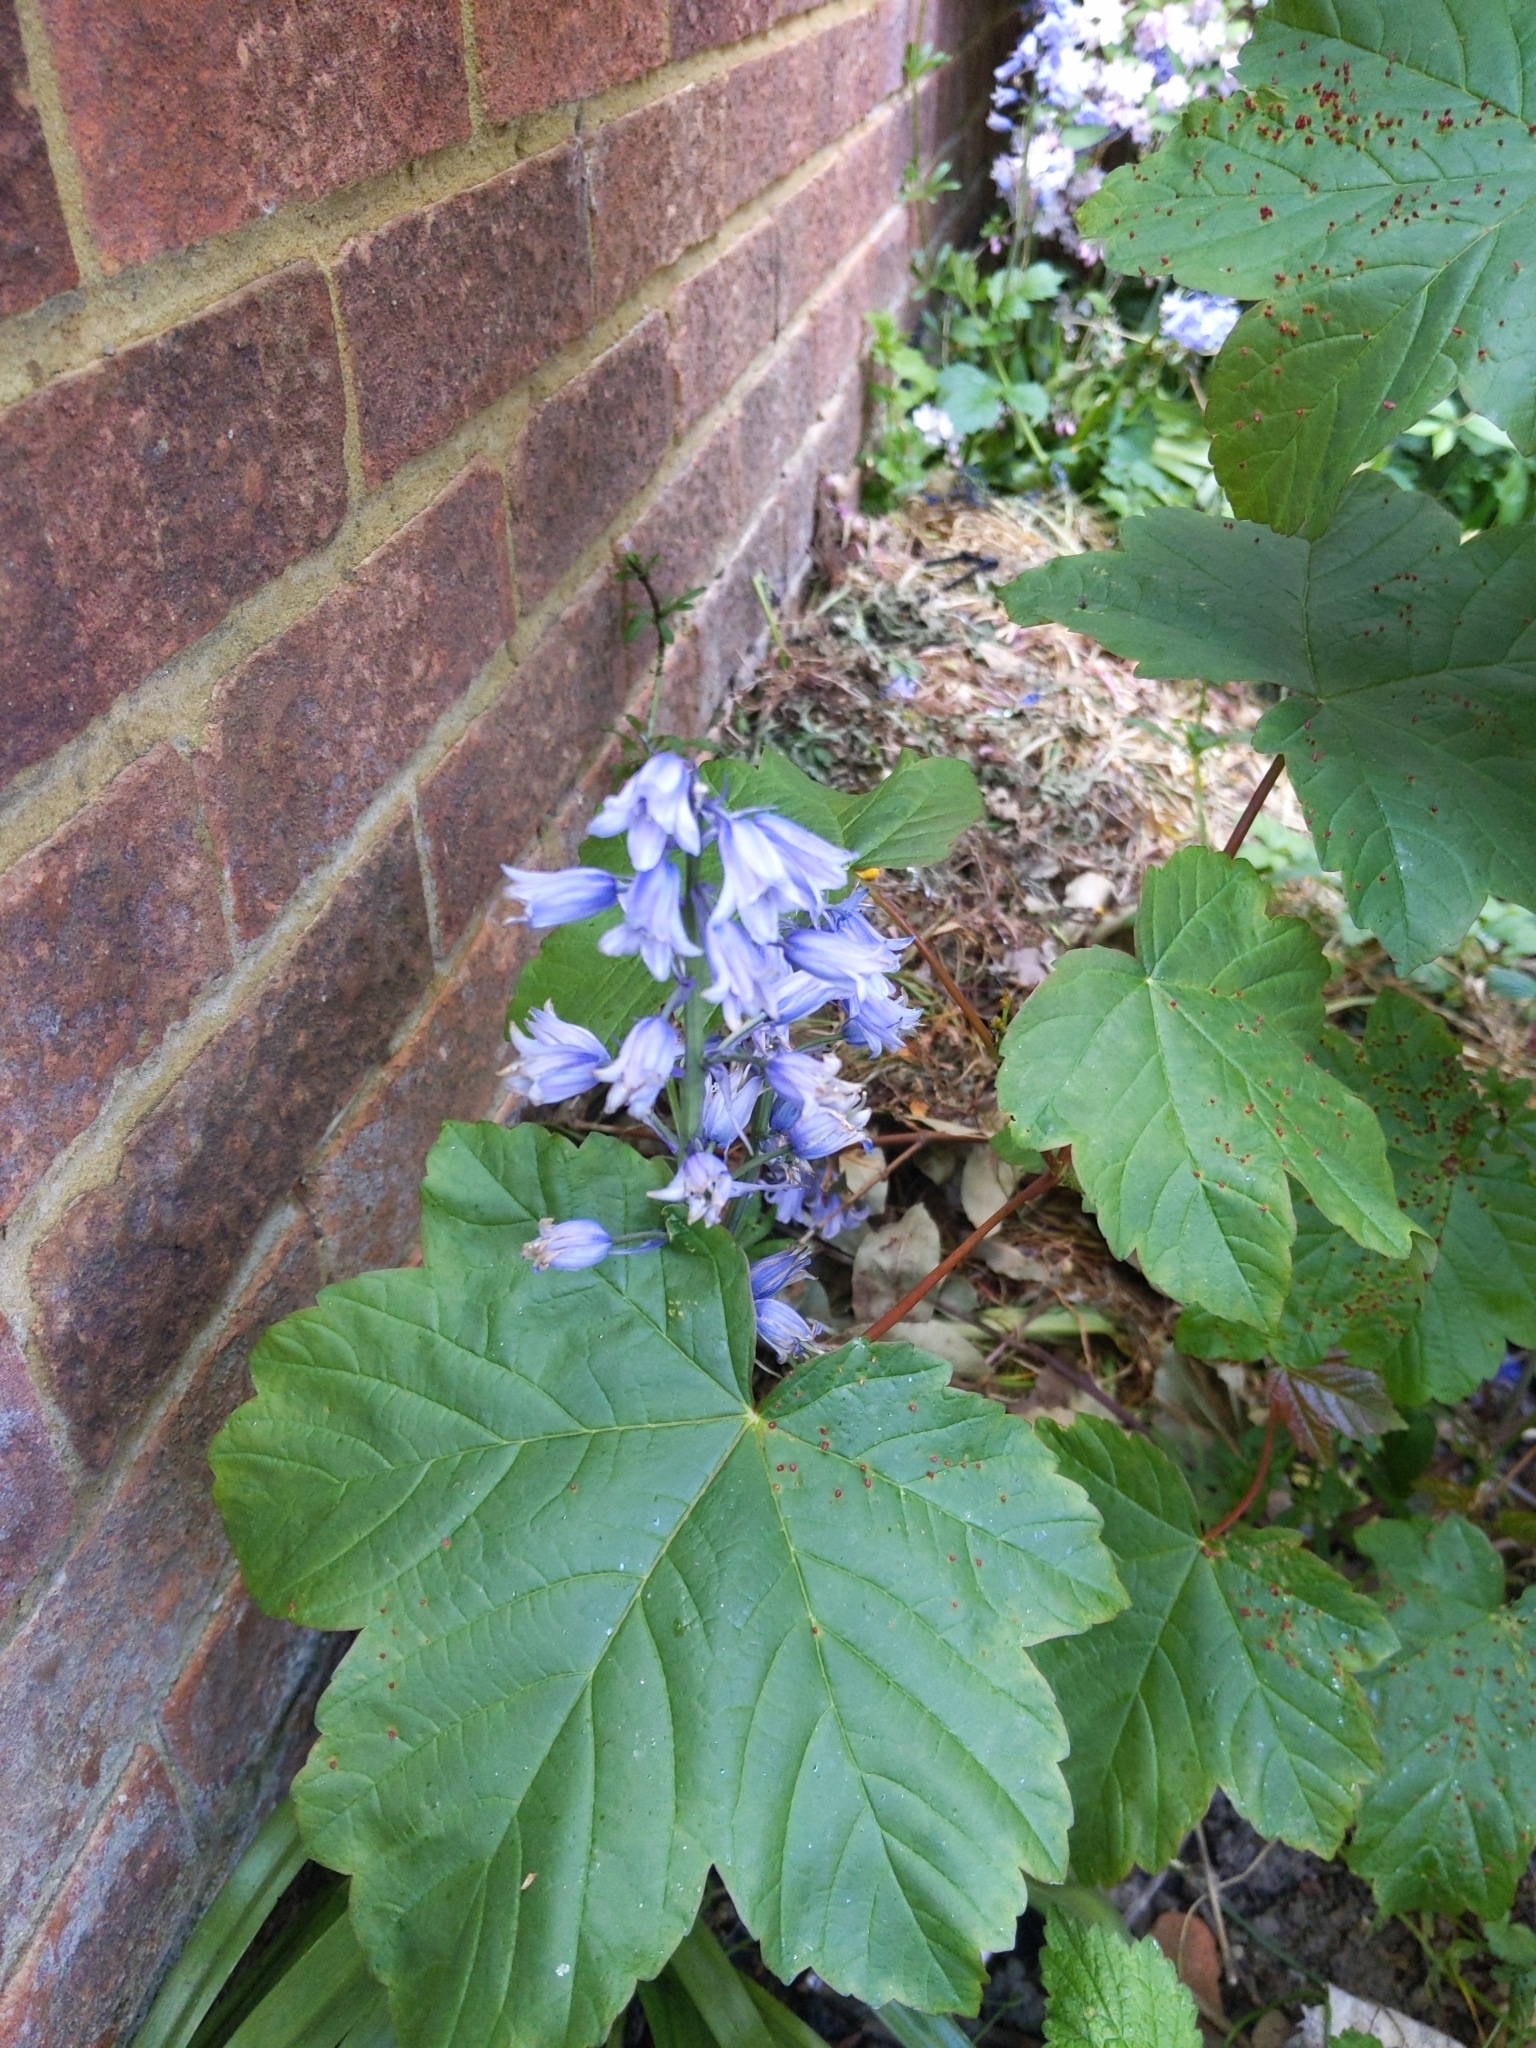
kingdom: Plantae
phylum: Tracheophyta
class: Liliopsida
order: Asparagales
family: Asparagaceae
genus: Hyacinthoides
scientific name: Hyacinthoides massartiana
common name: Hyacinthoides
